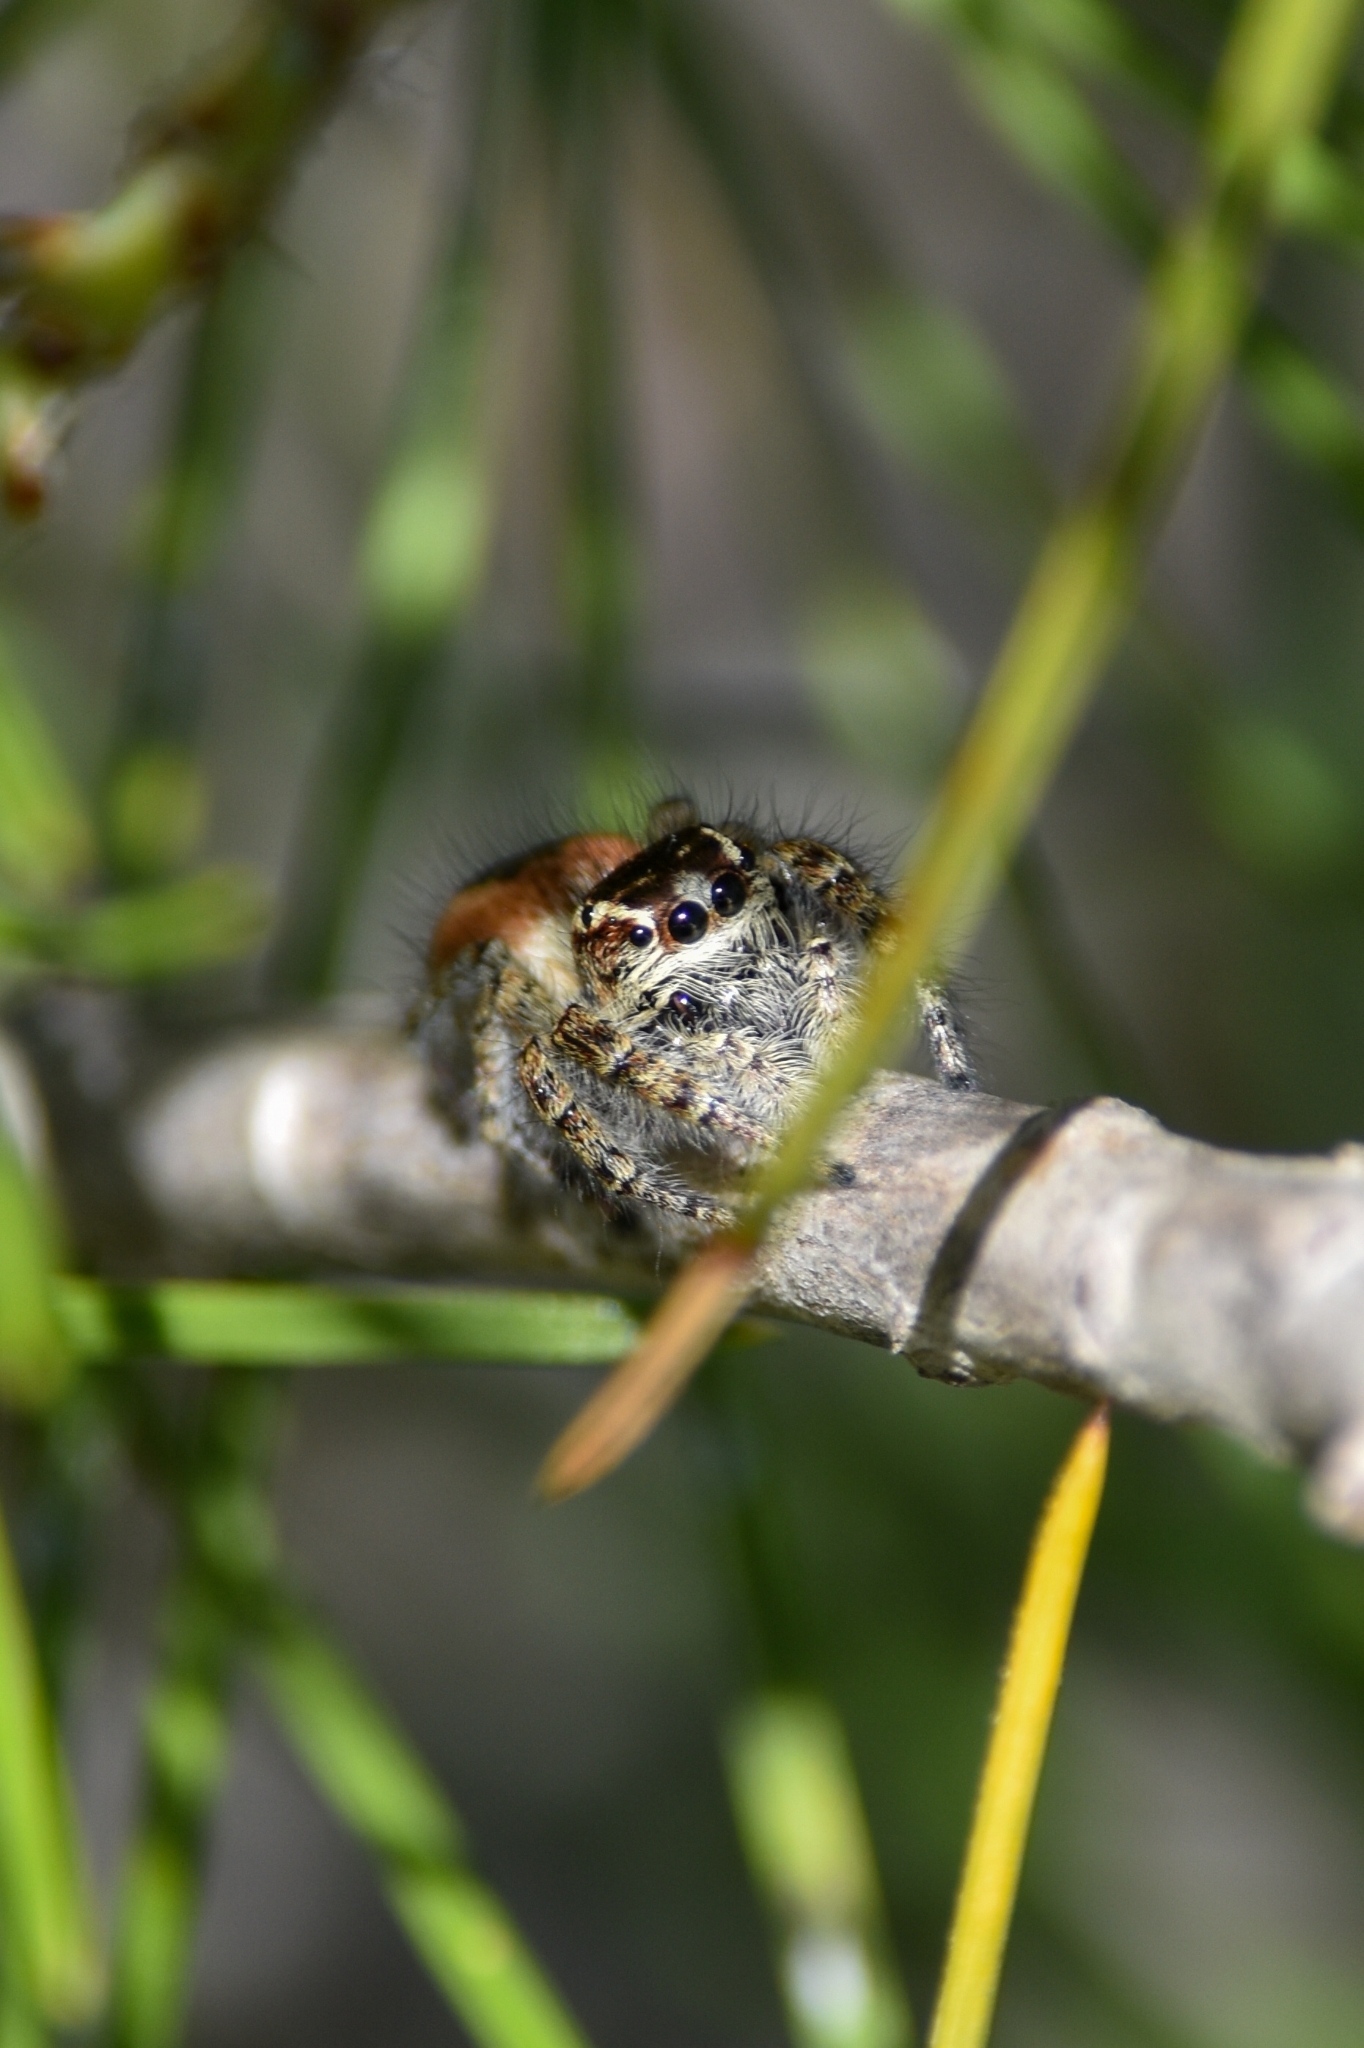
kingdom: Animalia
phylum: Arthropoda
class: Arachnida
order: Araneae
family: Salticidae
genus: Philaeus
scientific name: Philaeus chrysops
